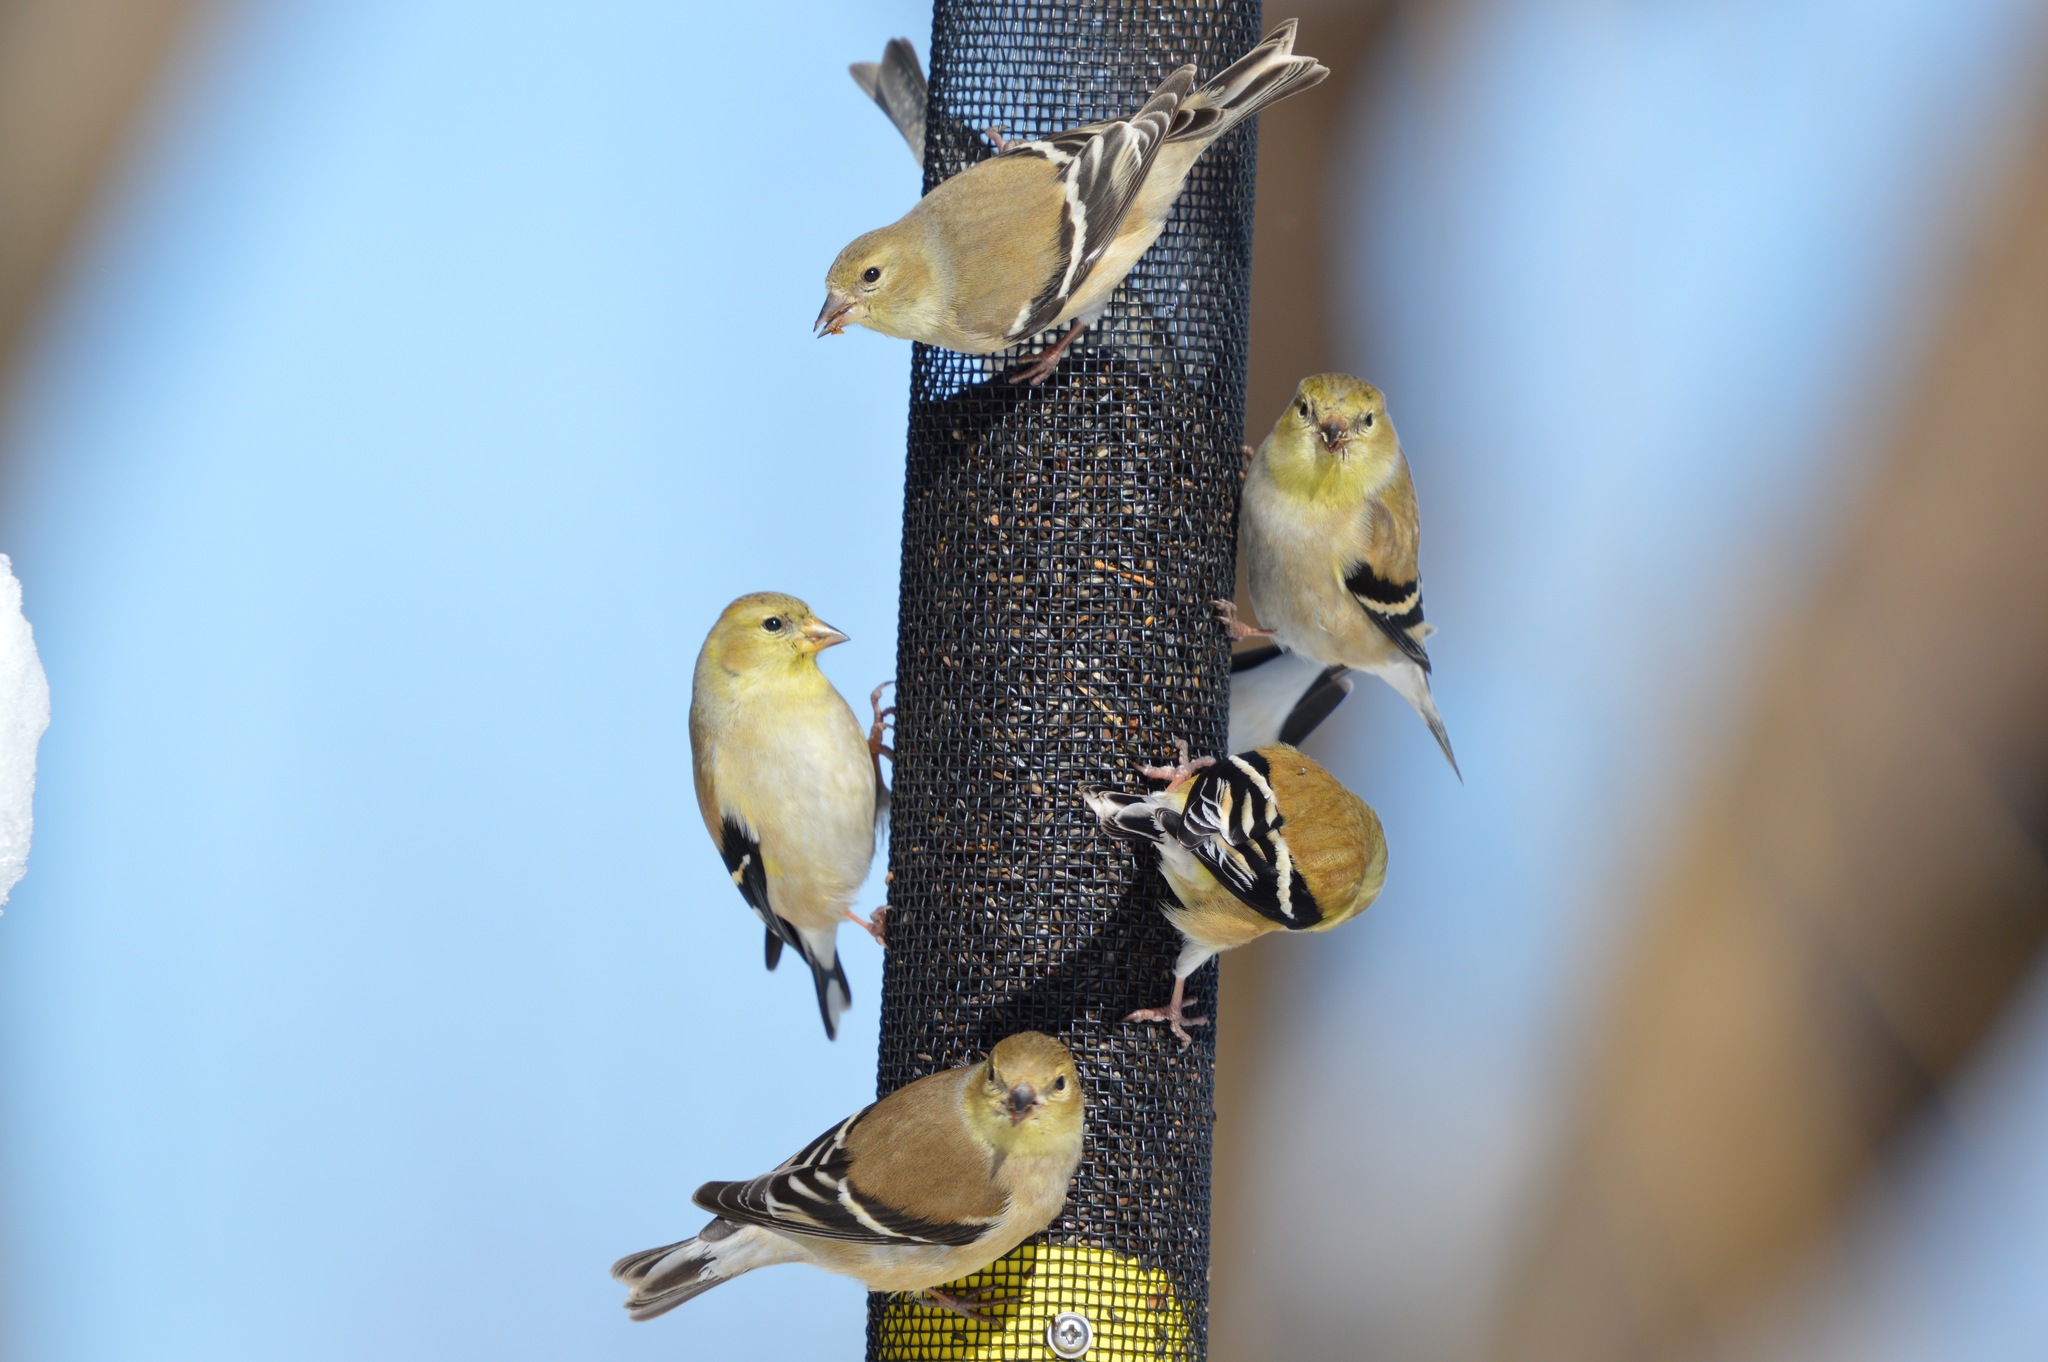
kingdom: Animalia
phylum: Chordata
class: Aves
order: Passeriformes
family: Fringillidae
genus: Spinus
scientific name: Spinus tristis
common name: American goldfinch
